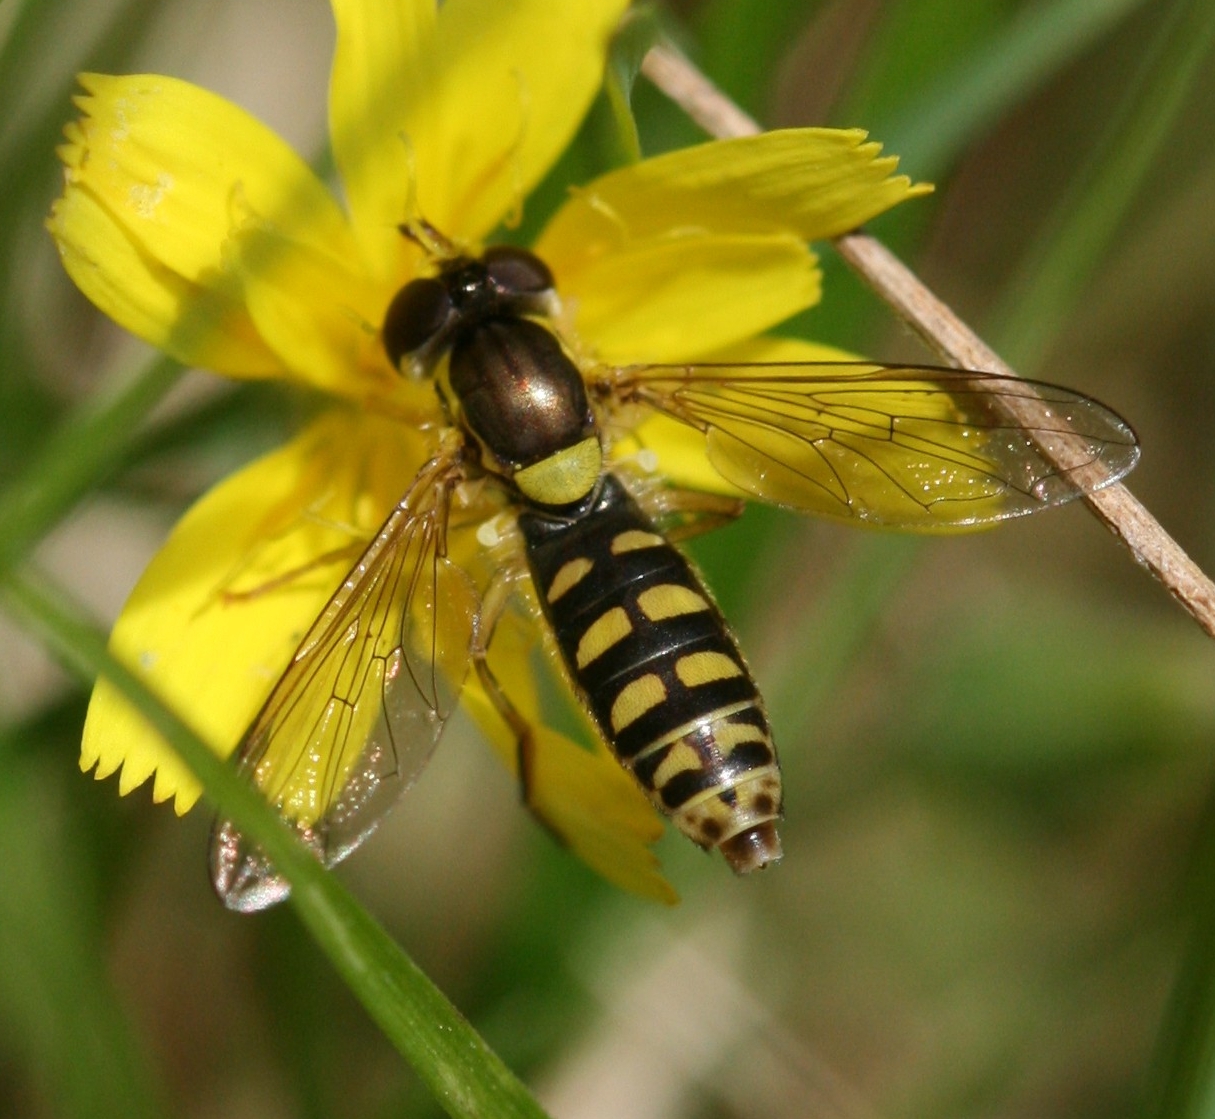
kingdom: Animalia
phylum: Arthropoda
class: Insecta
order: Diptera
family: Syrphidae
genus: Sphaerophoria
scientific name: Sphaerophoria
